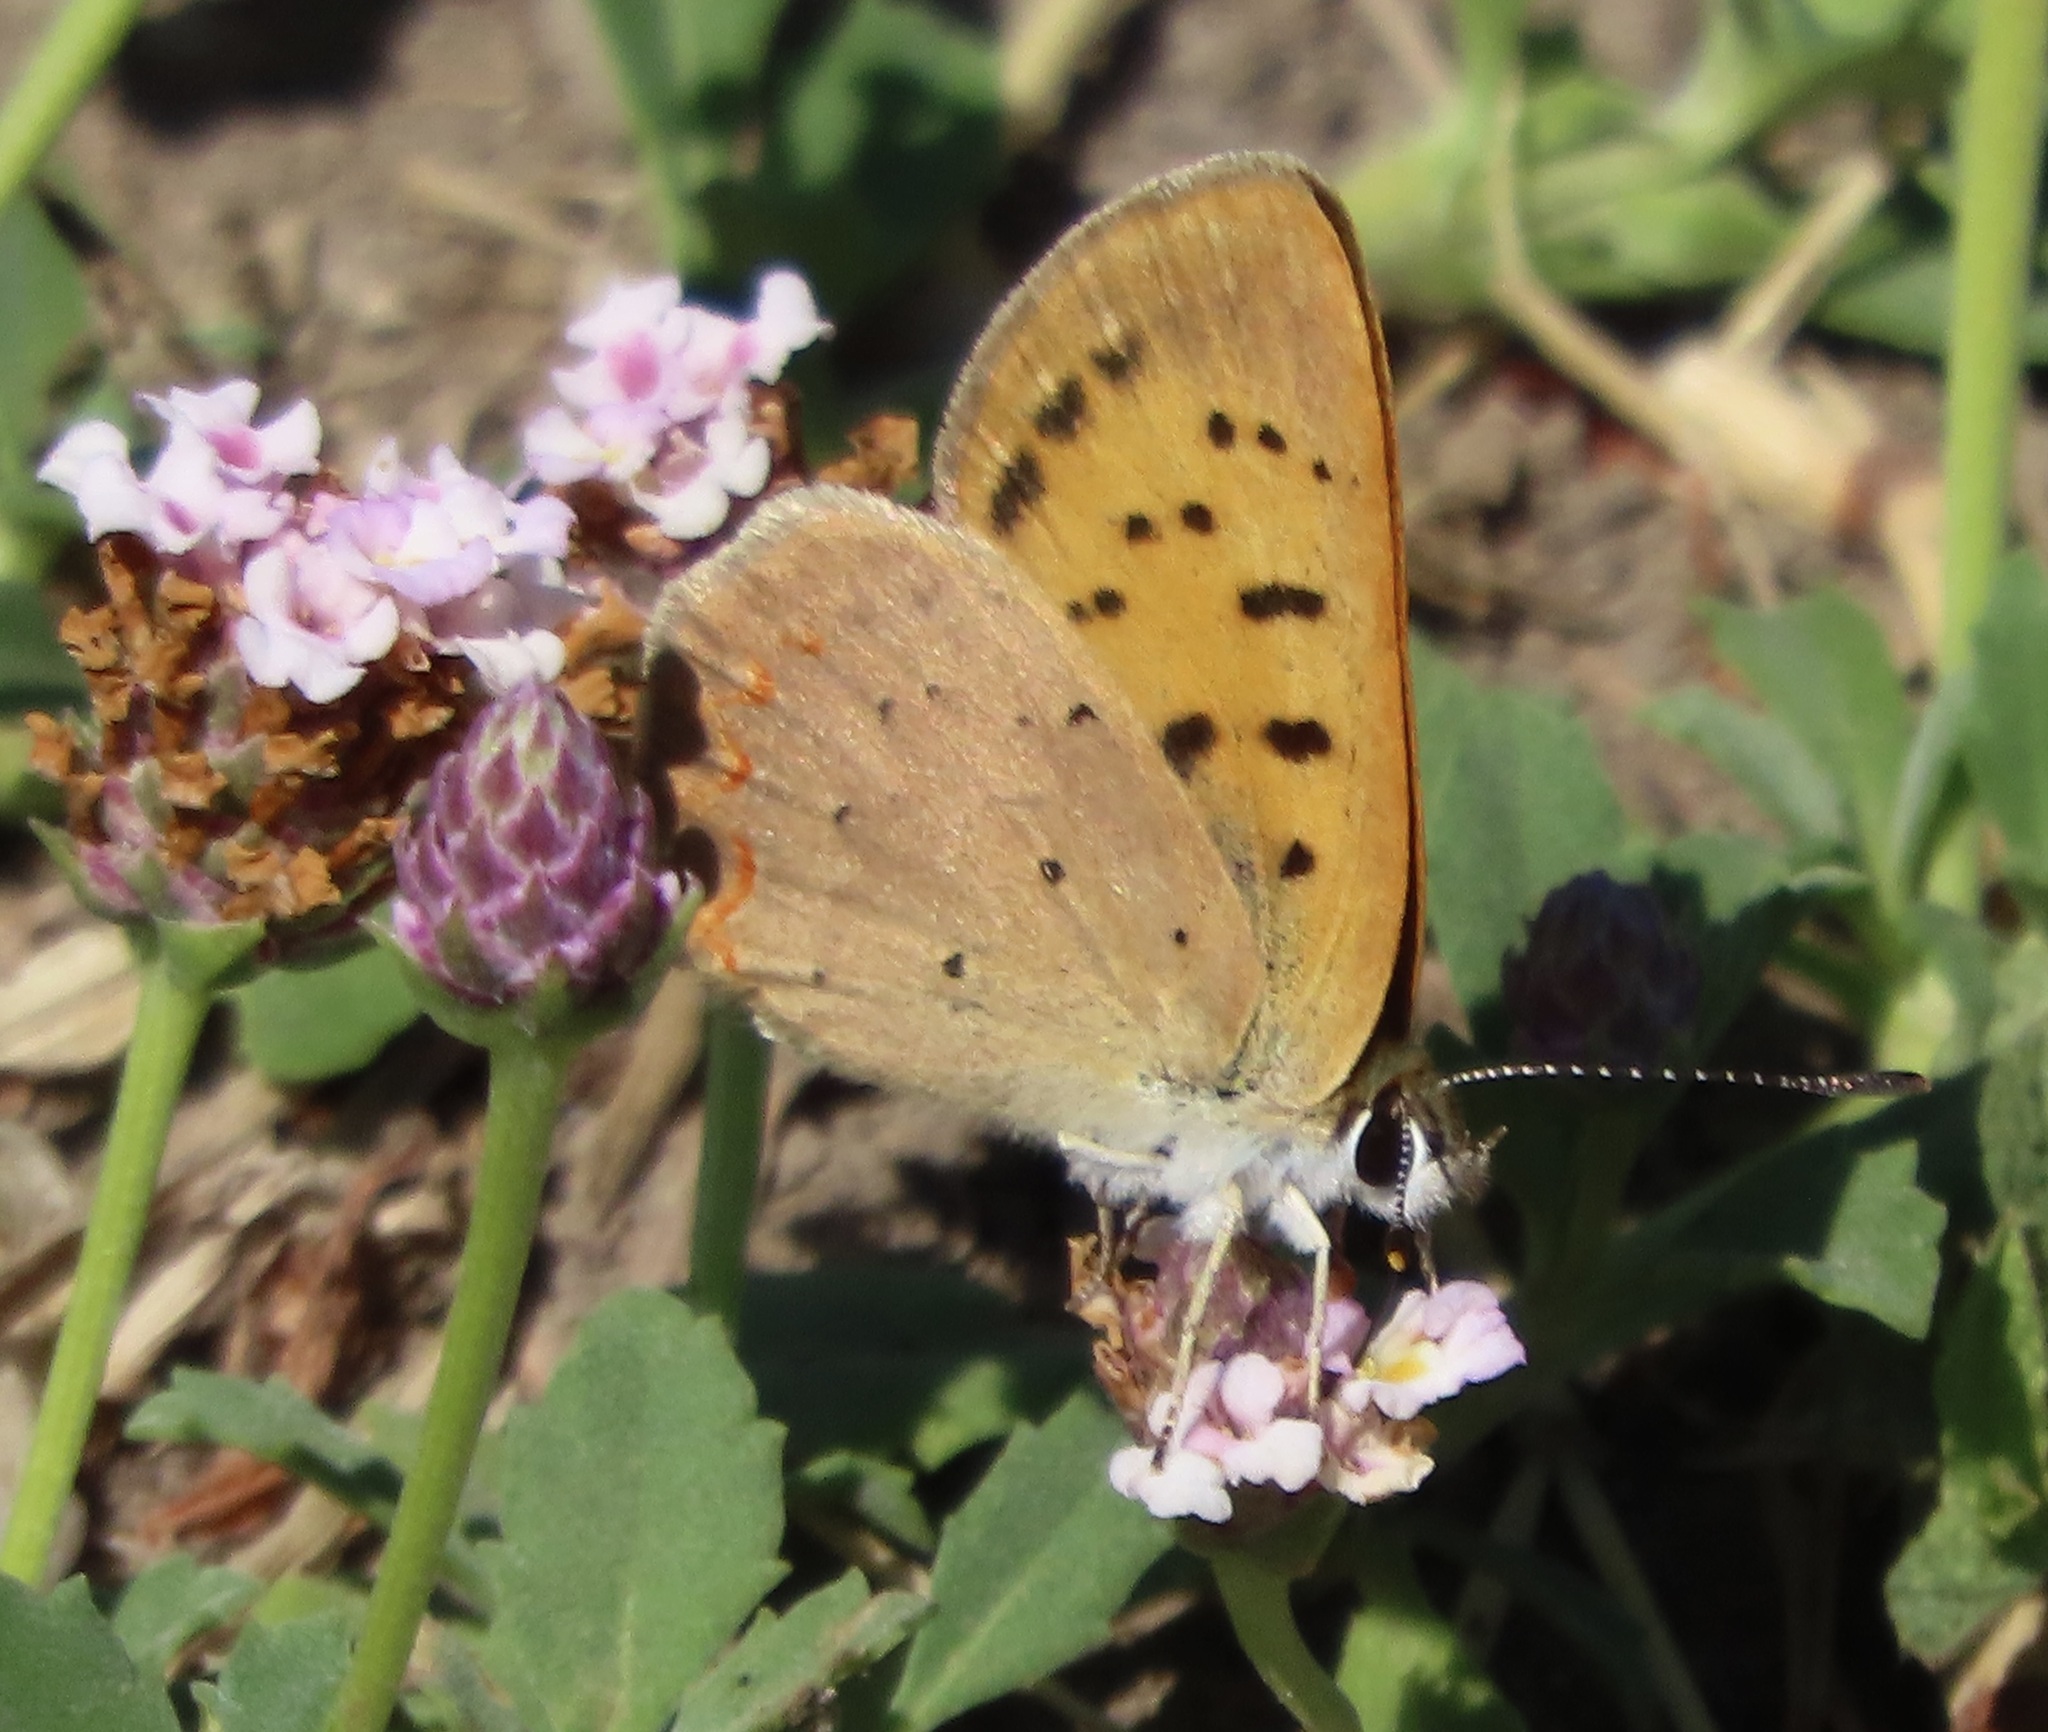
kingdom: Animalia
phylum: Arthropoda
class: Insecta
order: Lepidoptera
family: Lycaenidae
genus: Tharsalea
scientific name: Tharsalea helloides
